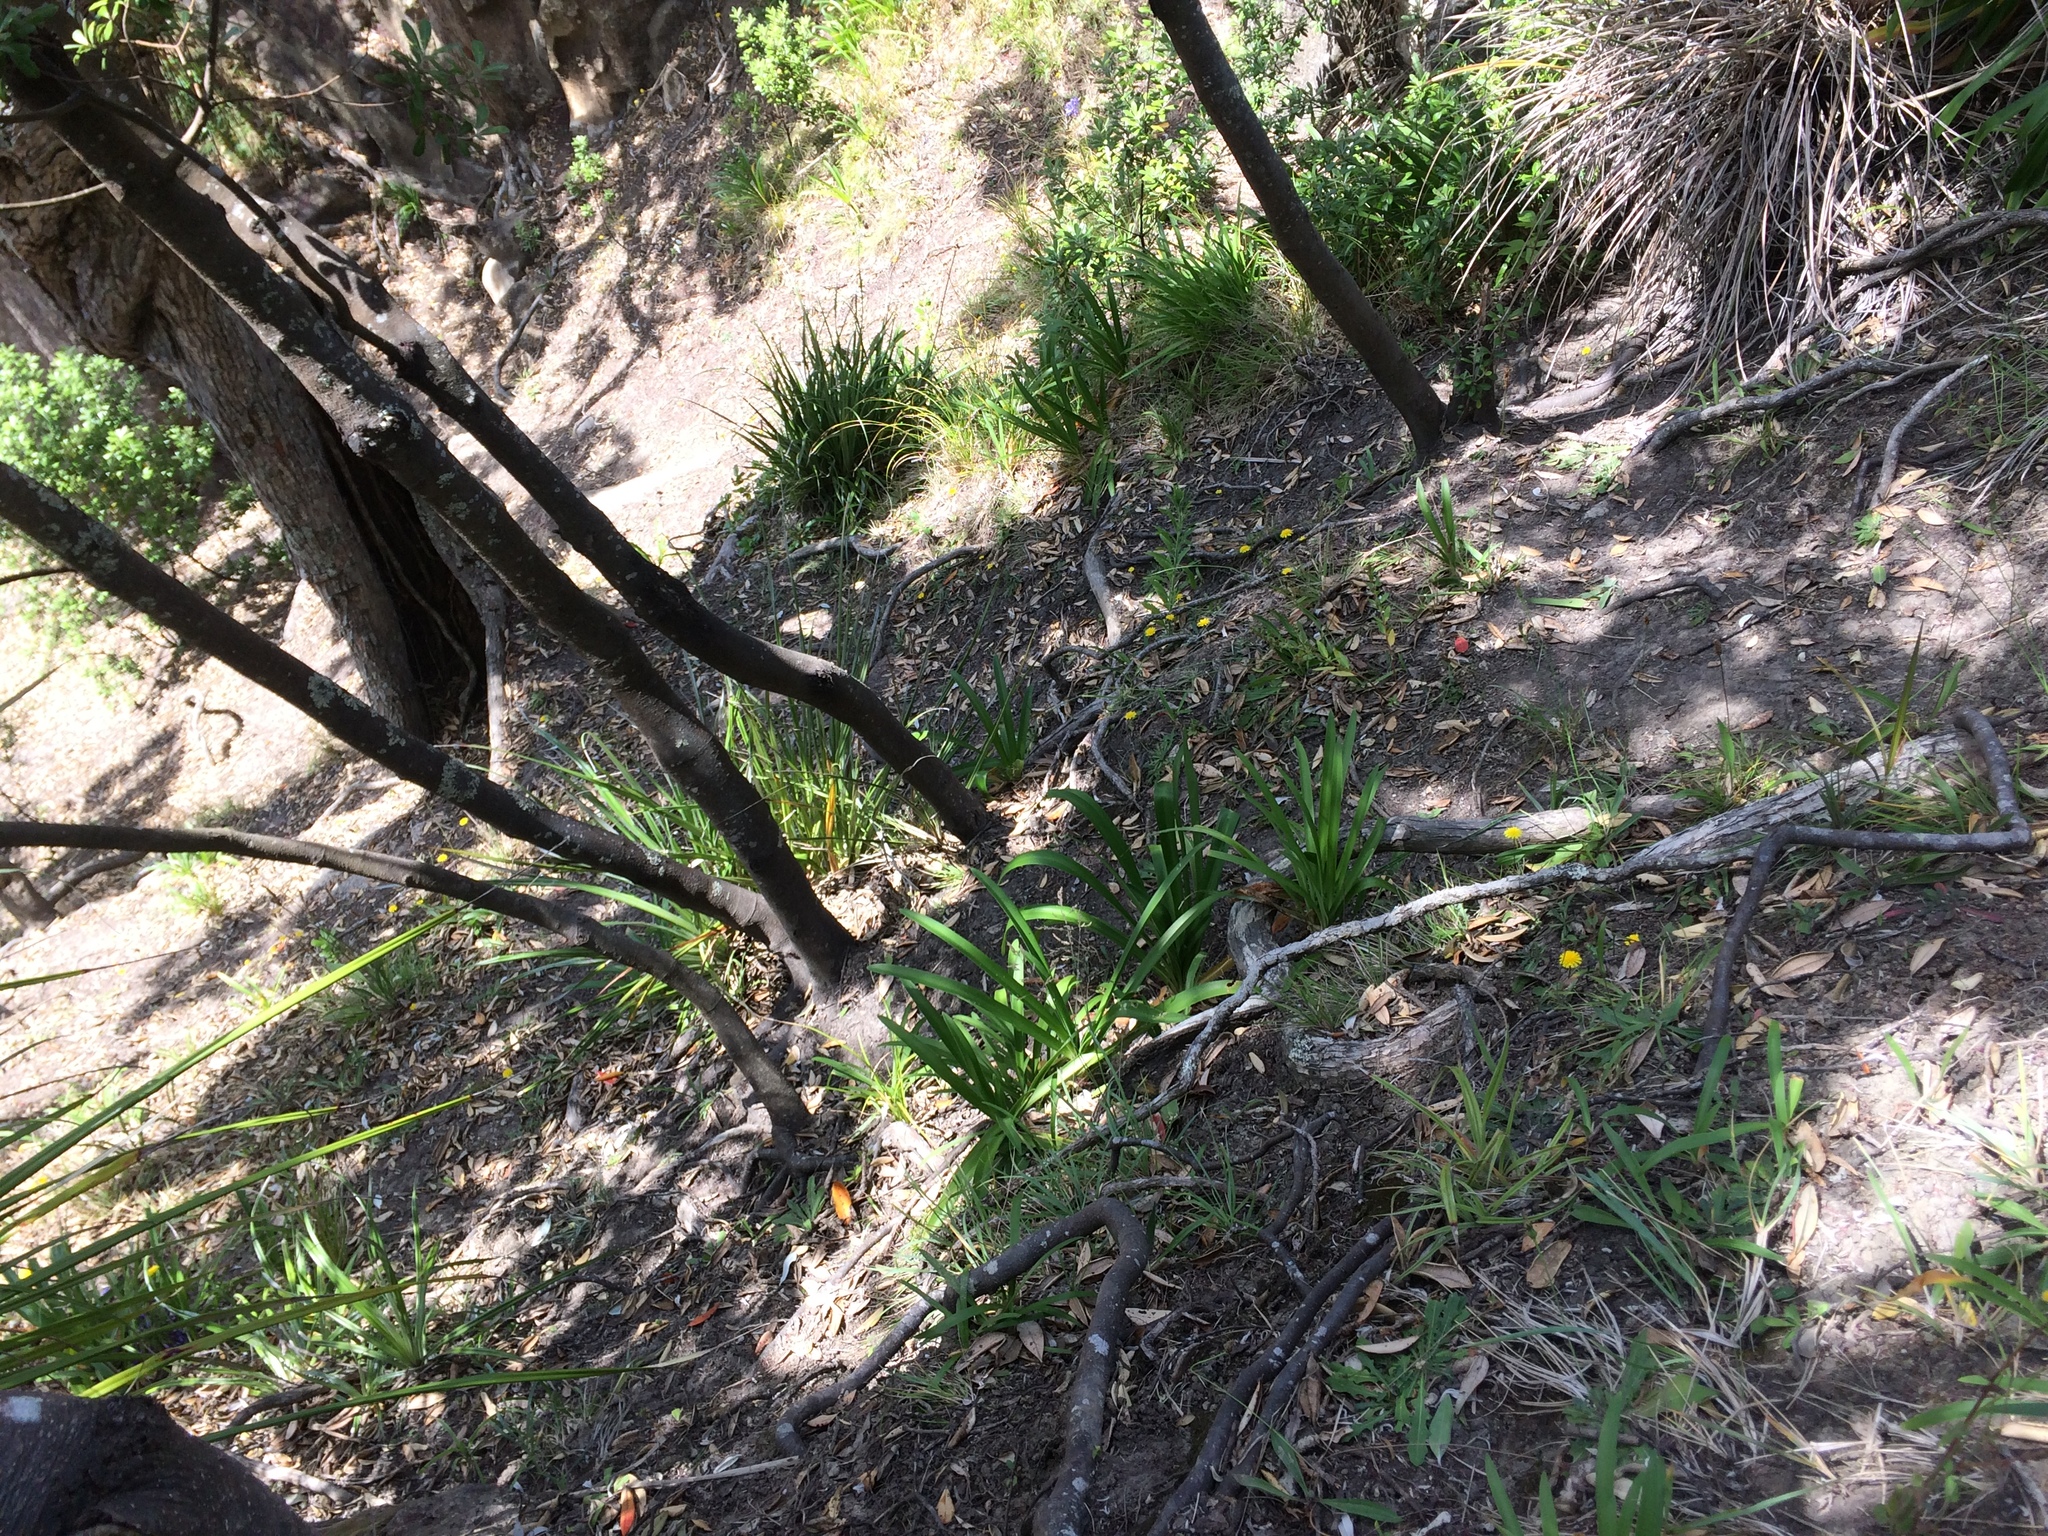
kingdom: Plantae
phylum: Tracheophyta
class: Liliopsida
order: Asparagales
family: Amaryllidaceae
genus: Agapanthus
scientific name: Agapanthus praecox
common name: African-lily
